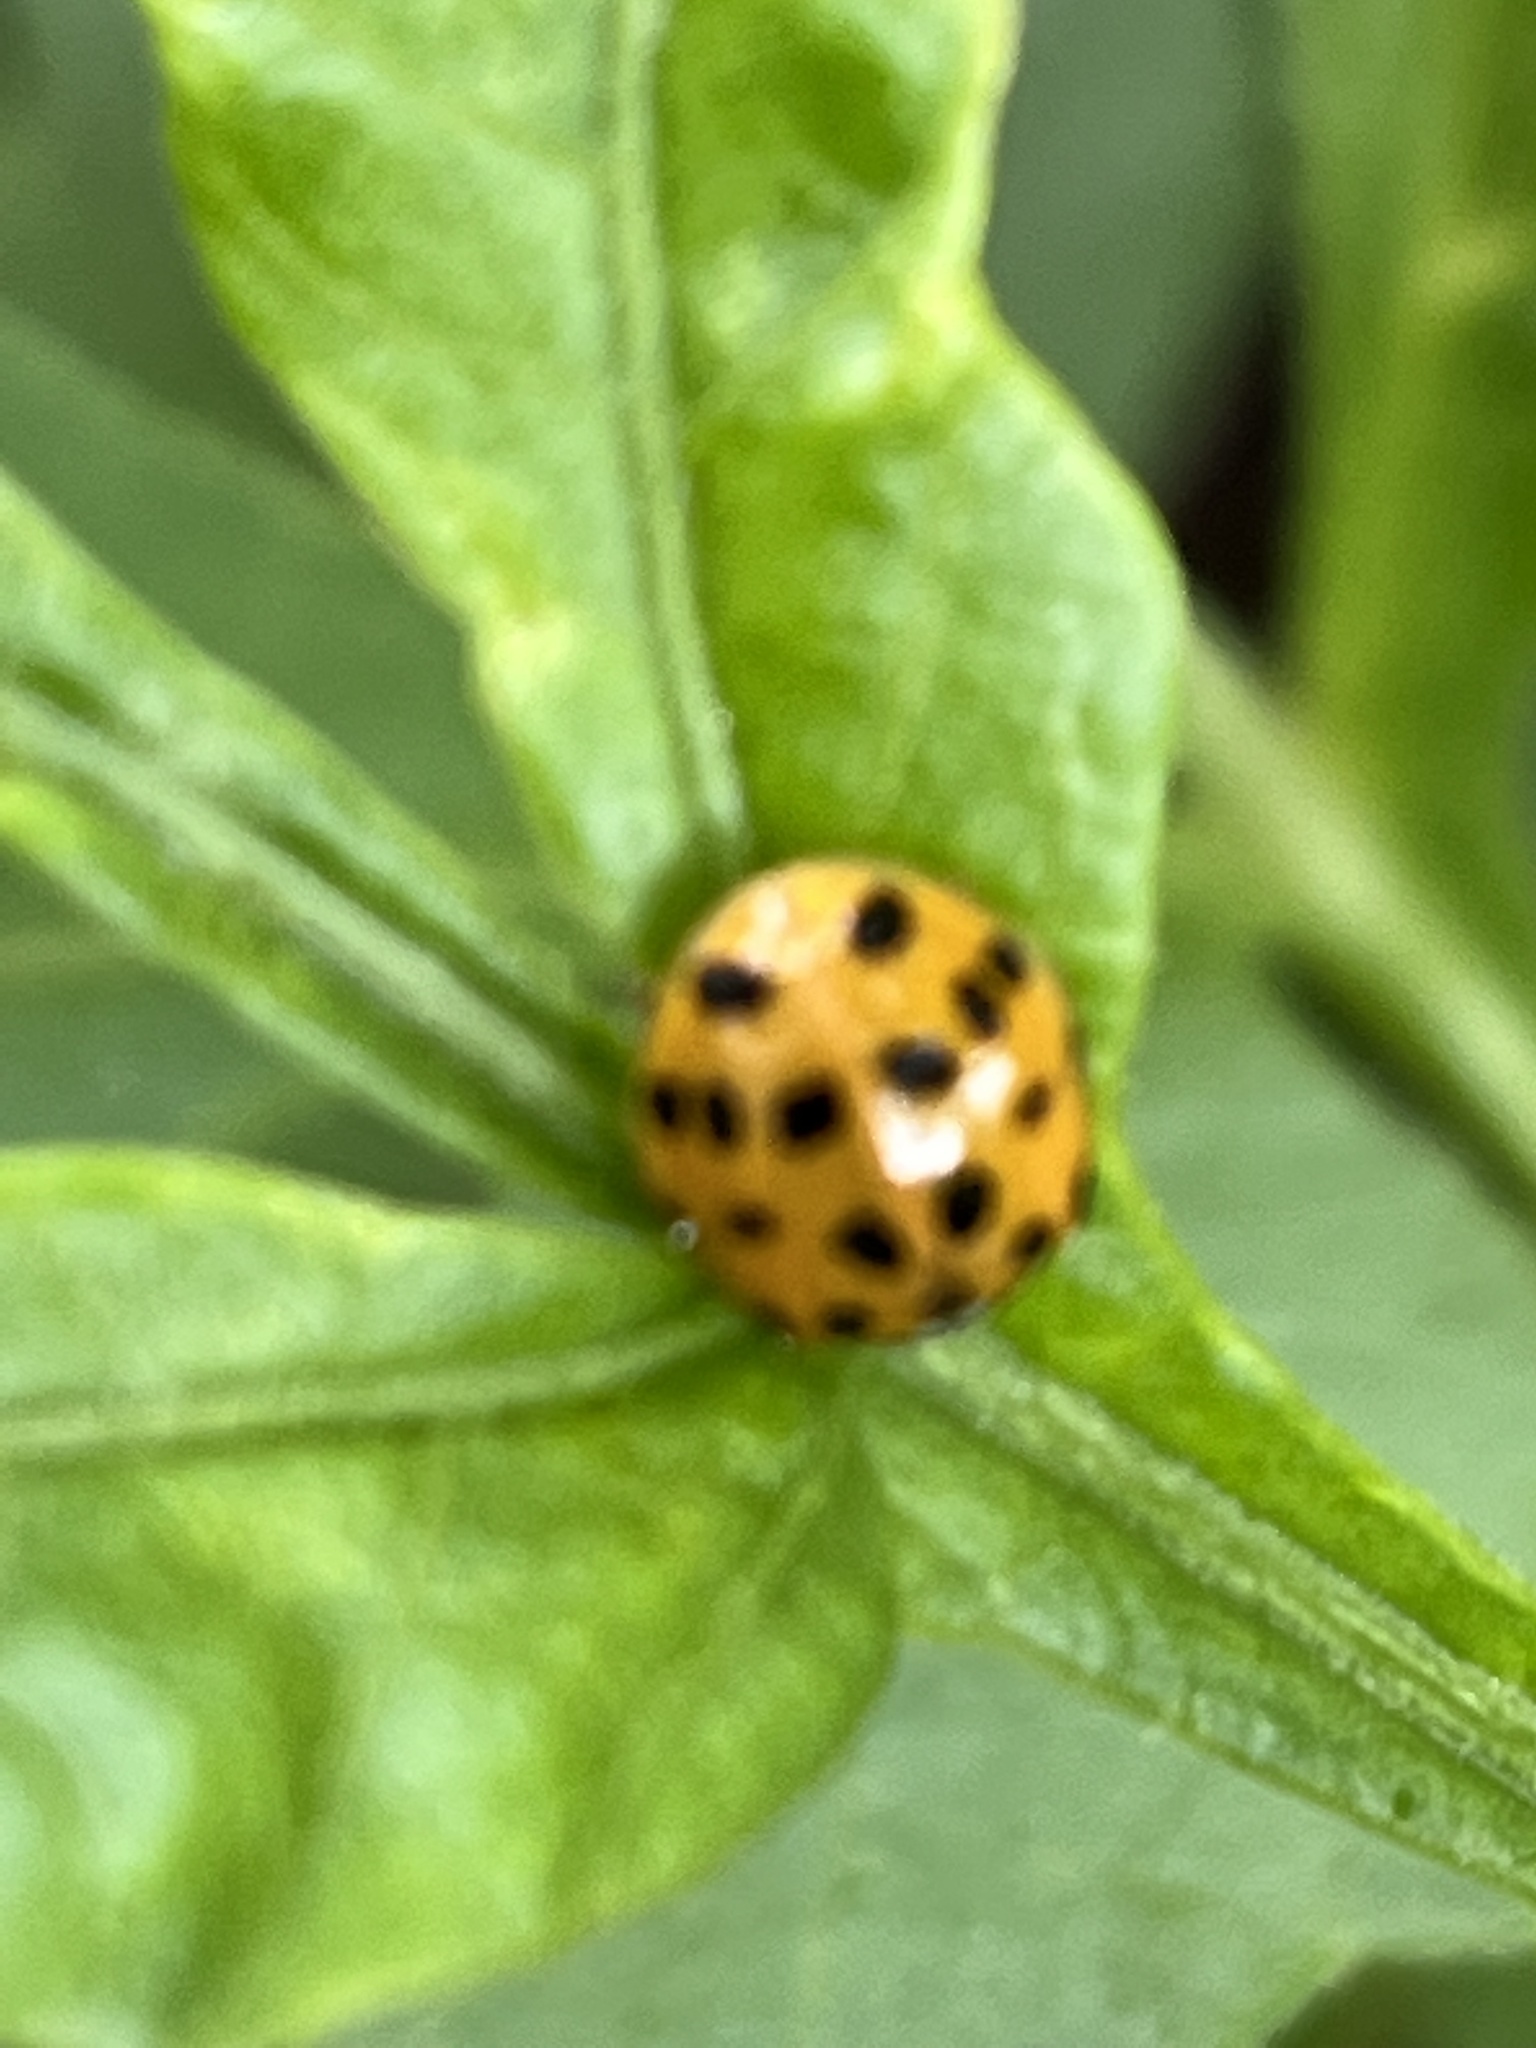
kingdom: Animalia
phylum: Arthropoda
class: Insecta
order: Coleoptera
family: Coccinellidae
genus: Harmonia
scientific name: Harmonia axyridis
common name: Harlequin ladybird
